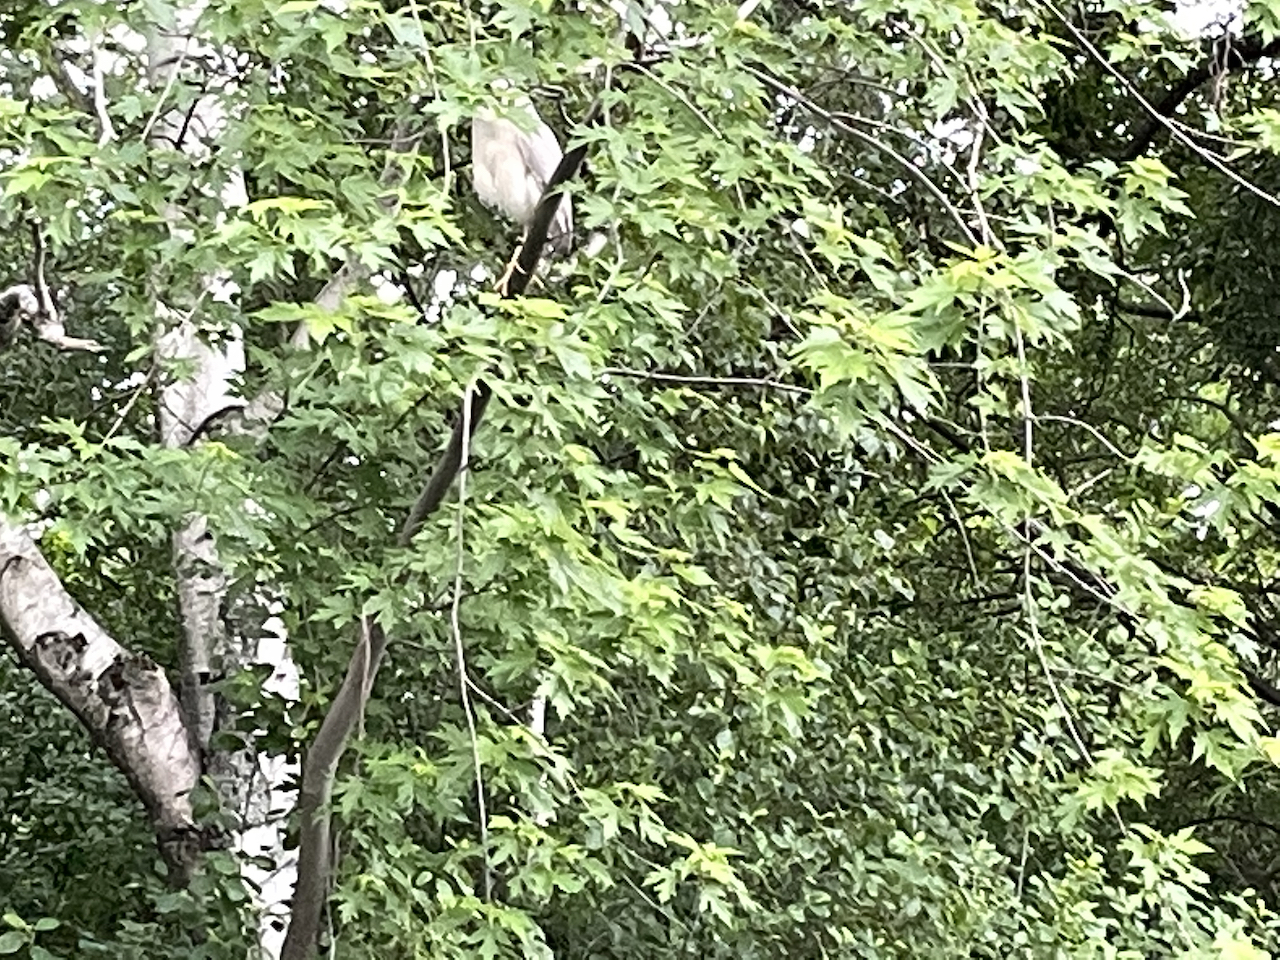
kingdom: Animalia
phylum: Chordata
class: Aves
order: Pelecaniformes
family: Ardeidae
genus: Nycticorax
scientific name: Nycticorax nycticorax
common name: Black-crowned night heron
